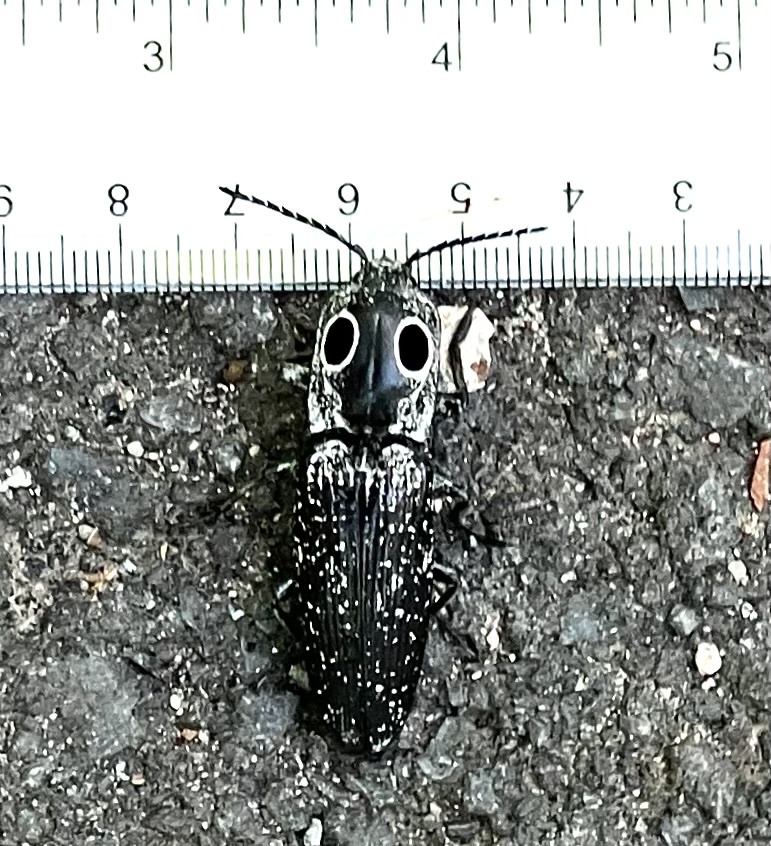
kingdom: Animalia
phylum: Arthropoda
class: Insecta
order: Coleoptera
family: Elateridae
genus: Alaus
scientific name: Alaus oculatus
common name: Eastern eyed click beetle
